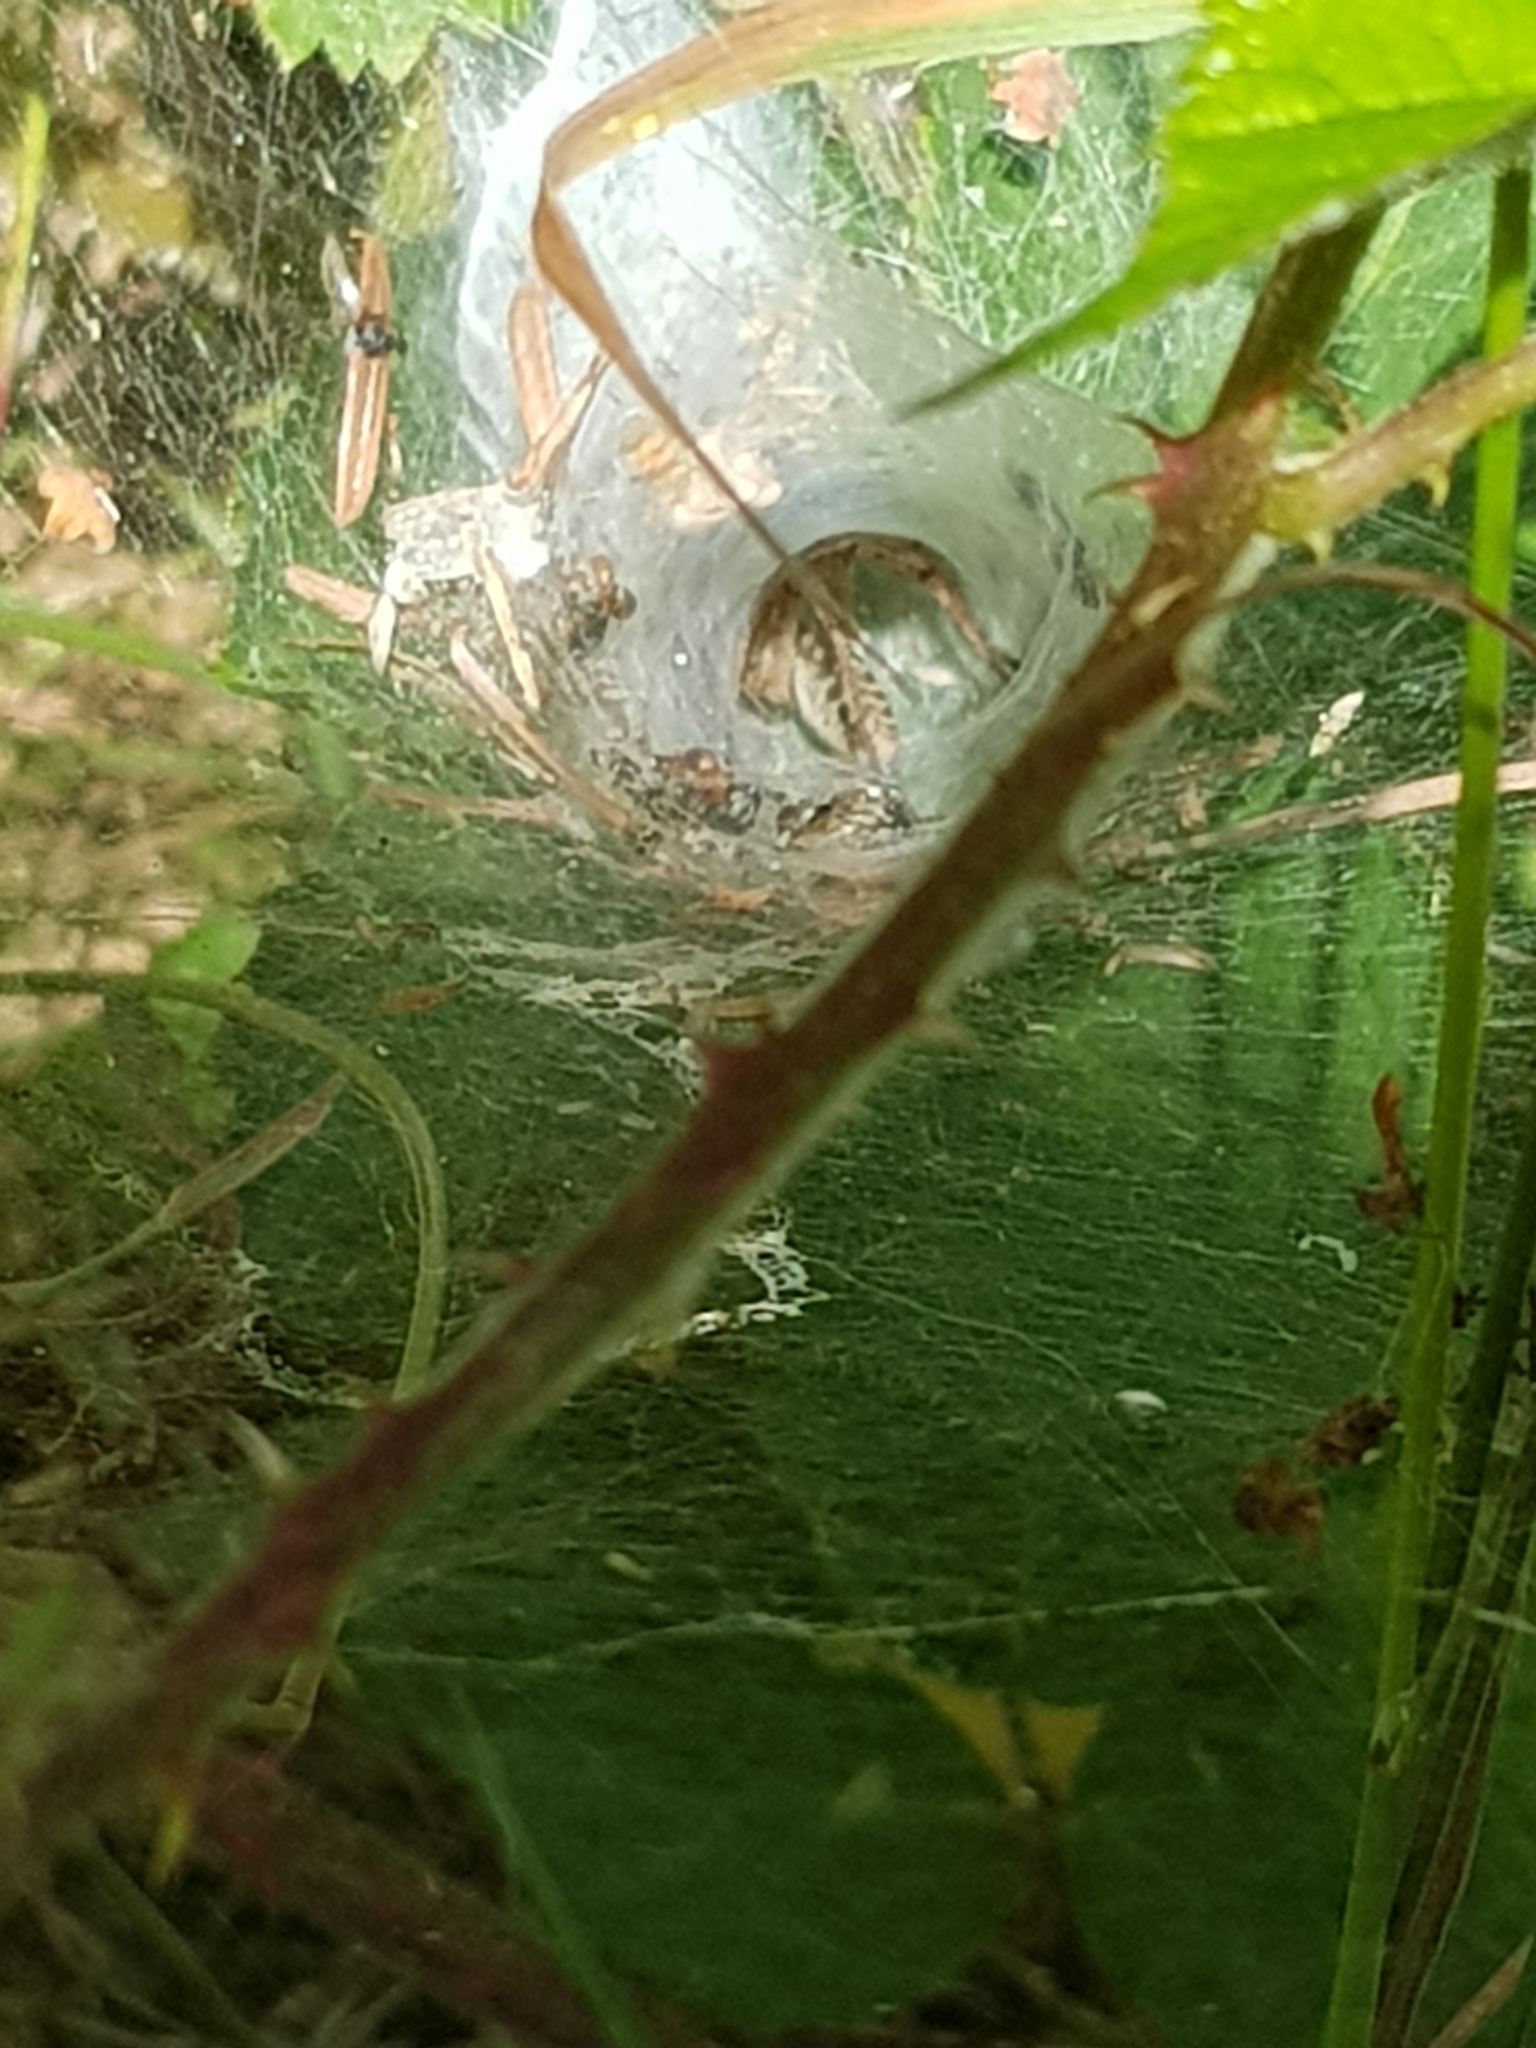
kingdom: Animalia
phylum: Arthropoda
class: Arachnida
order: Araneae
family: Agelenidae
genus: Agelena
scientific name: Agelena labyrinthica
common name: Labyrinth spider
